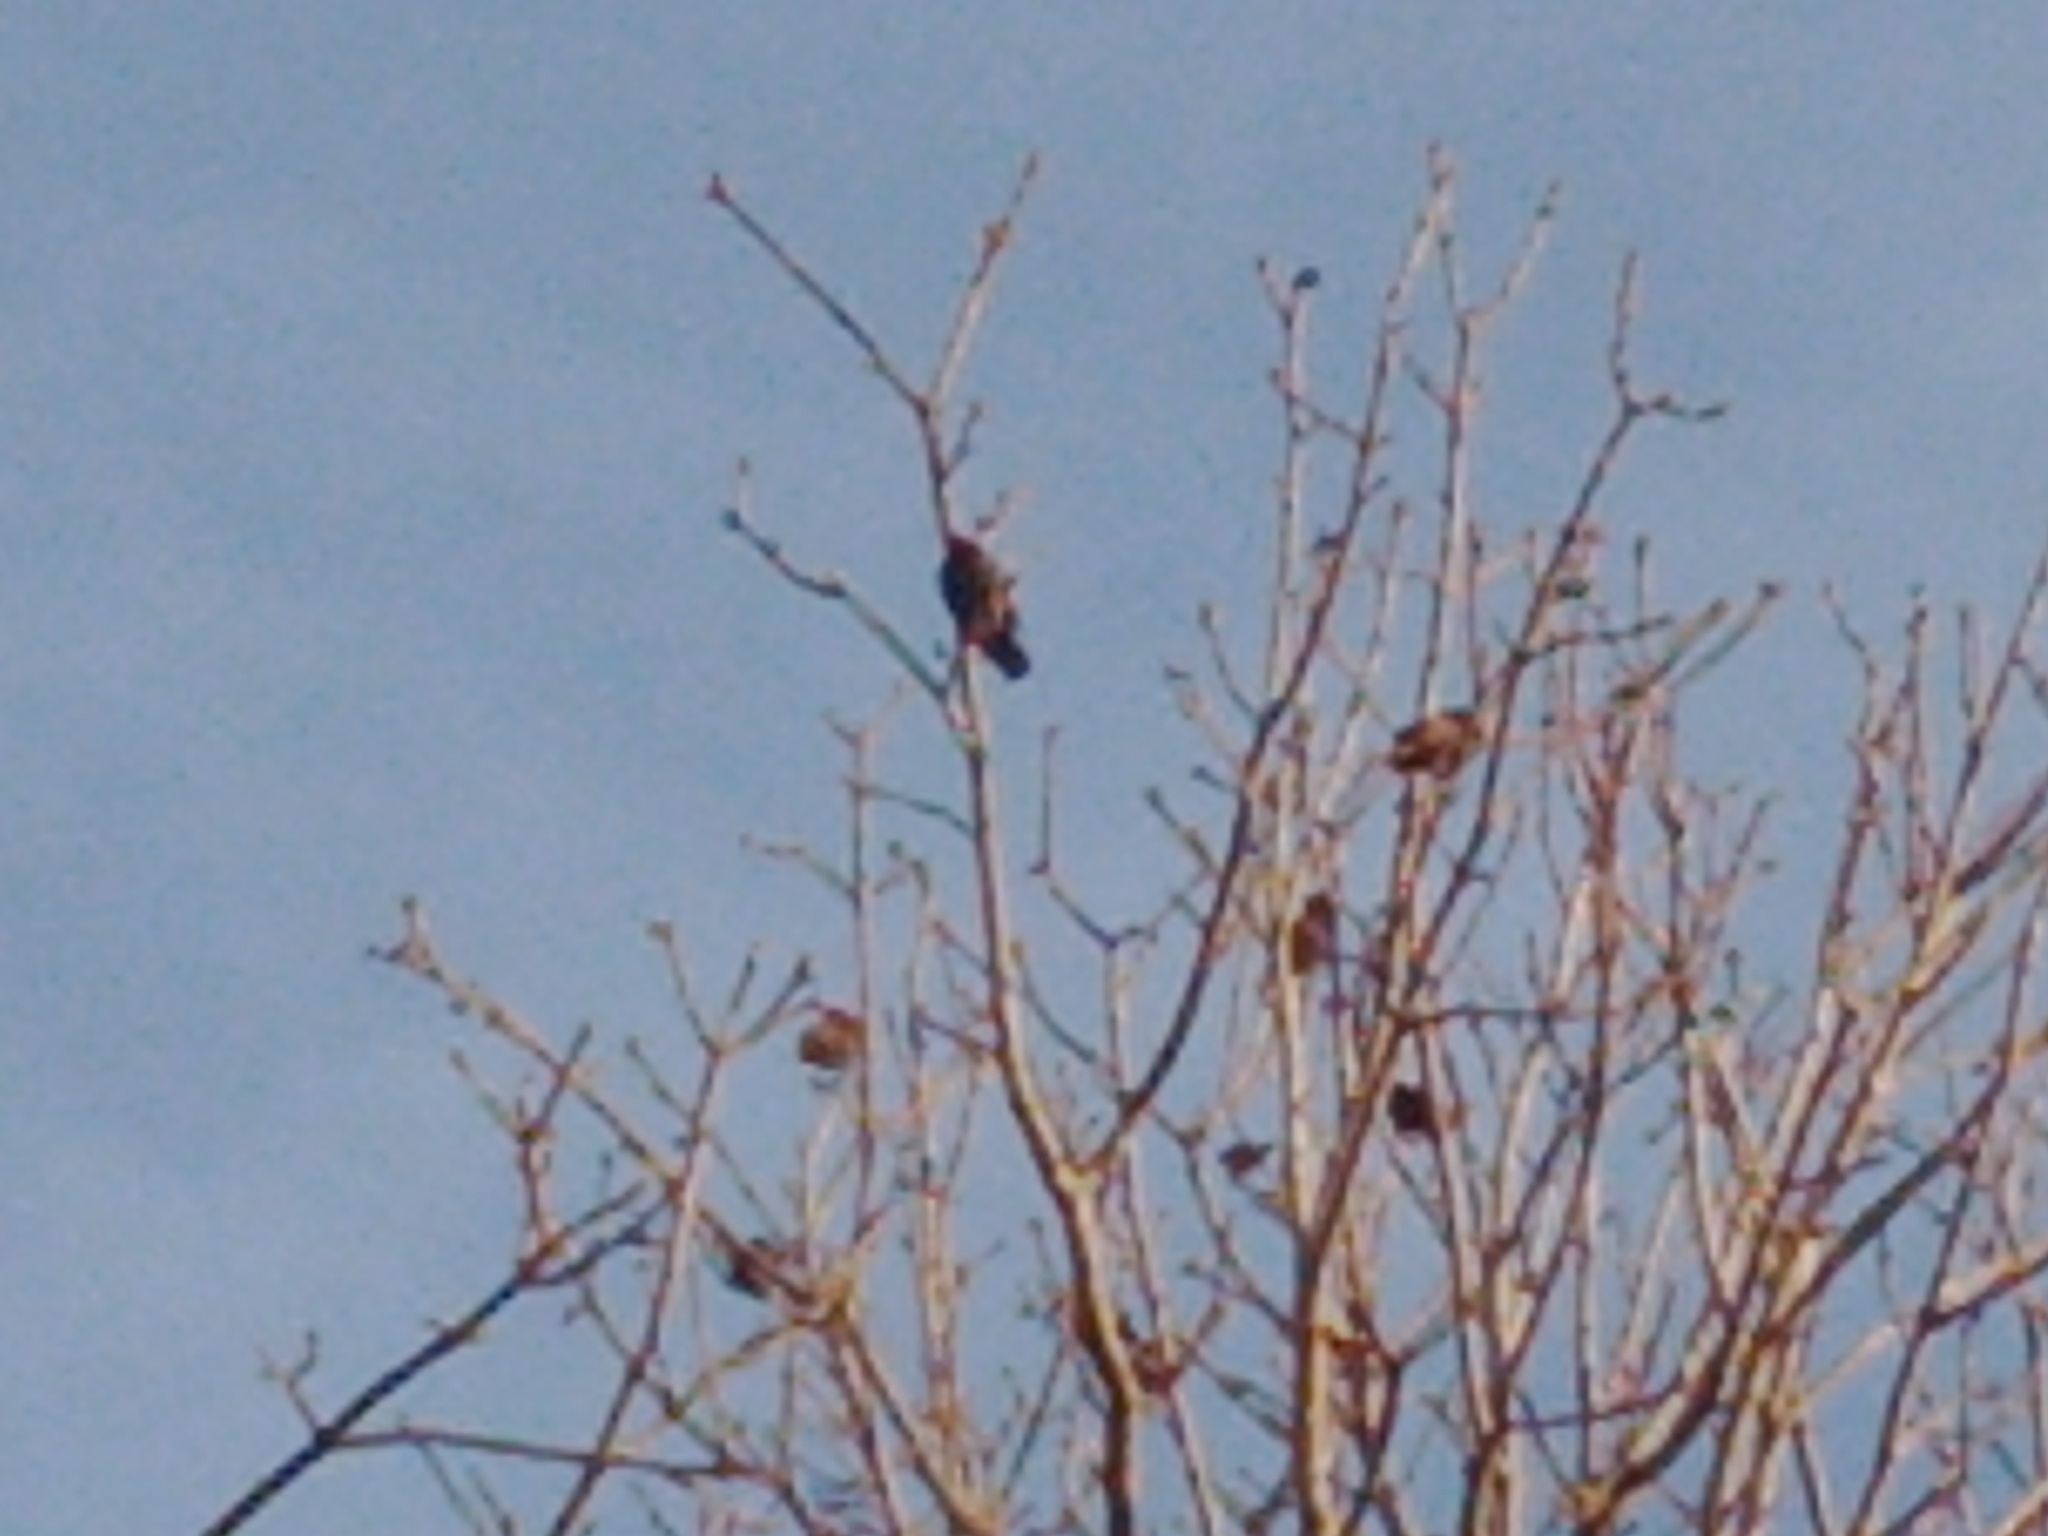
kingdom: Animalia
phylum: Chordata
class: Aves
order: Passeriformes
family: Sturnidae
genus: Sturnus
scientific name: Sturnus vulgaris
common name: Common starling
